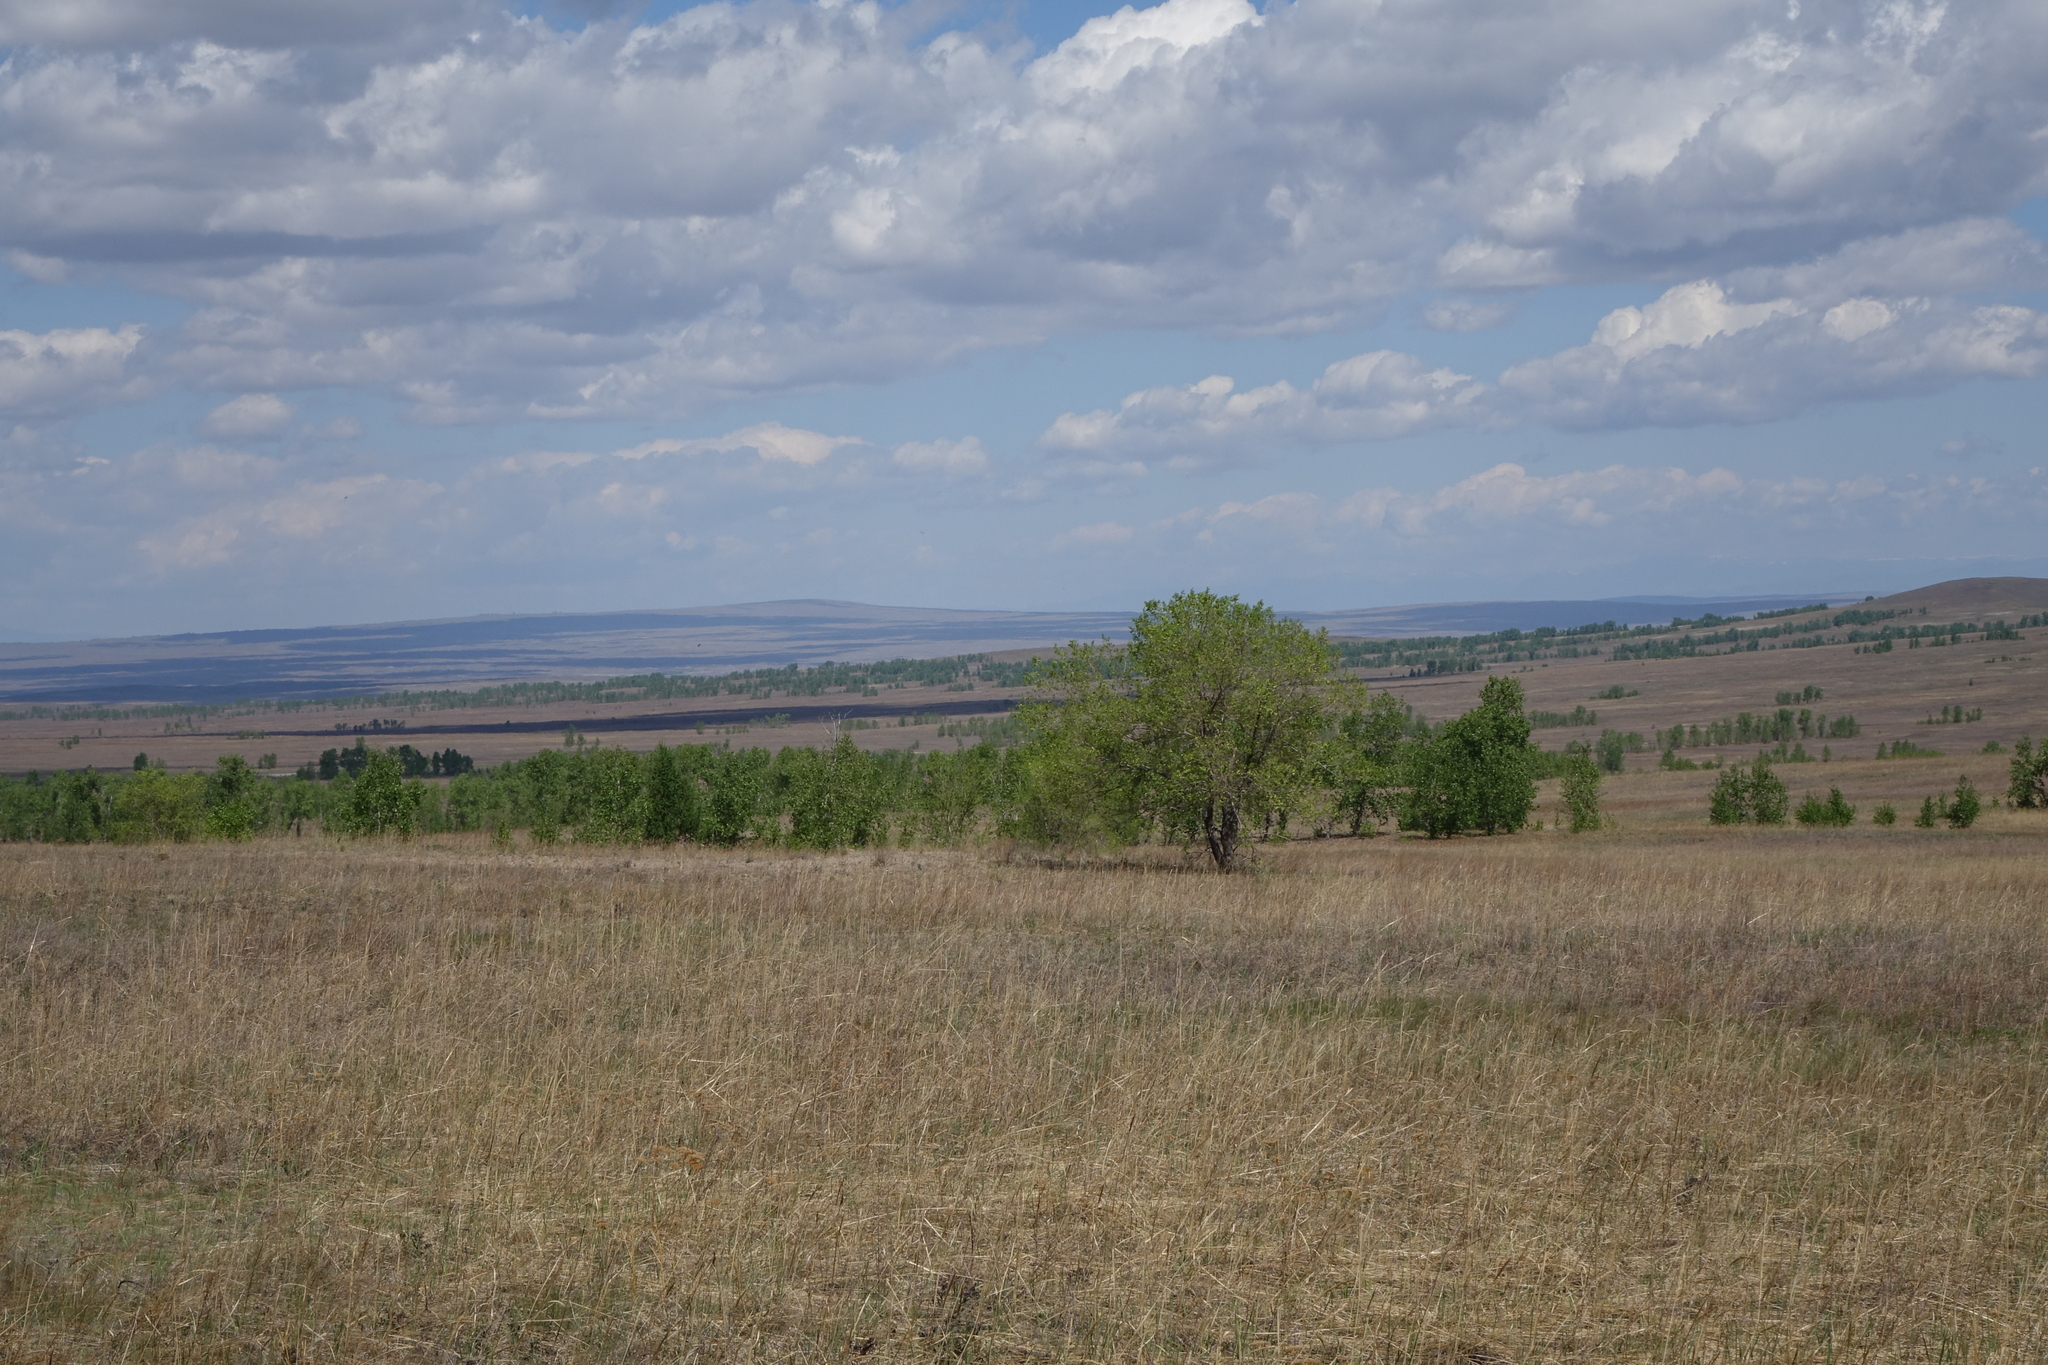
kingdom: Plantae
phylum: Tracheophyta
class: Magnoliopsida
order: Rosales
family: Ulmaceae
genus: Ulmus
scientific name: Ulmus pumila
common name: Siberian elm
